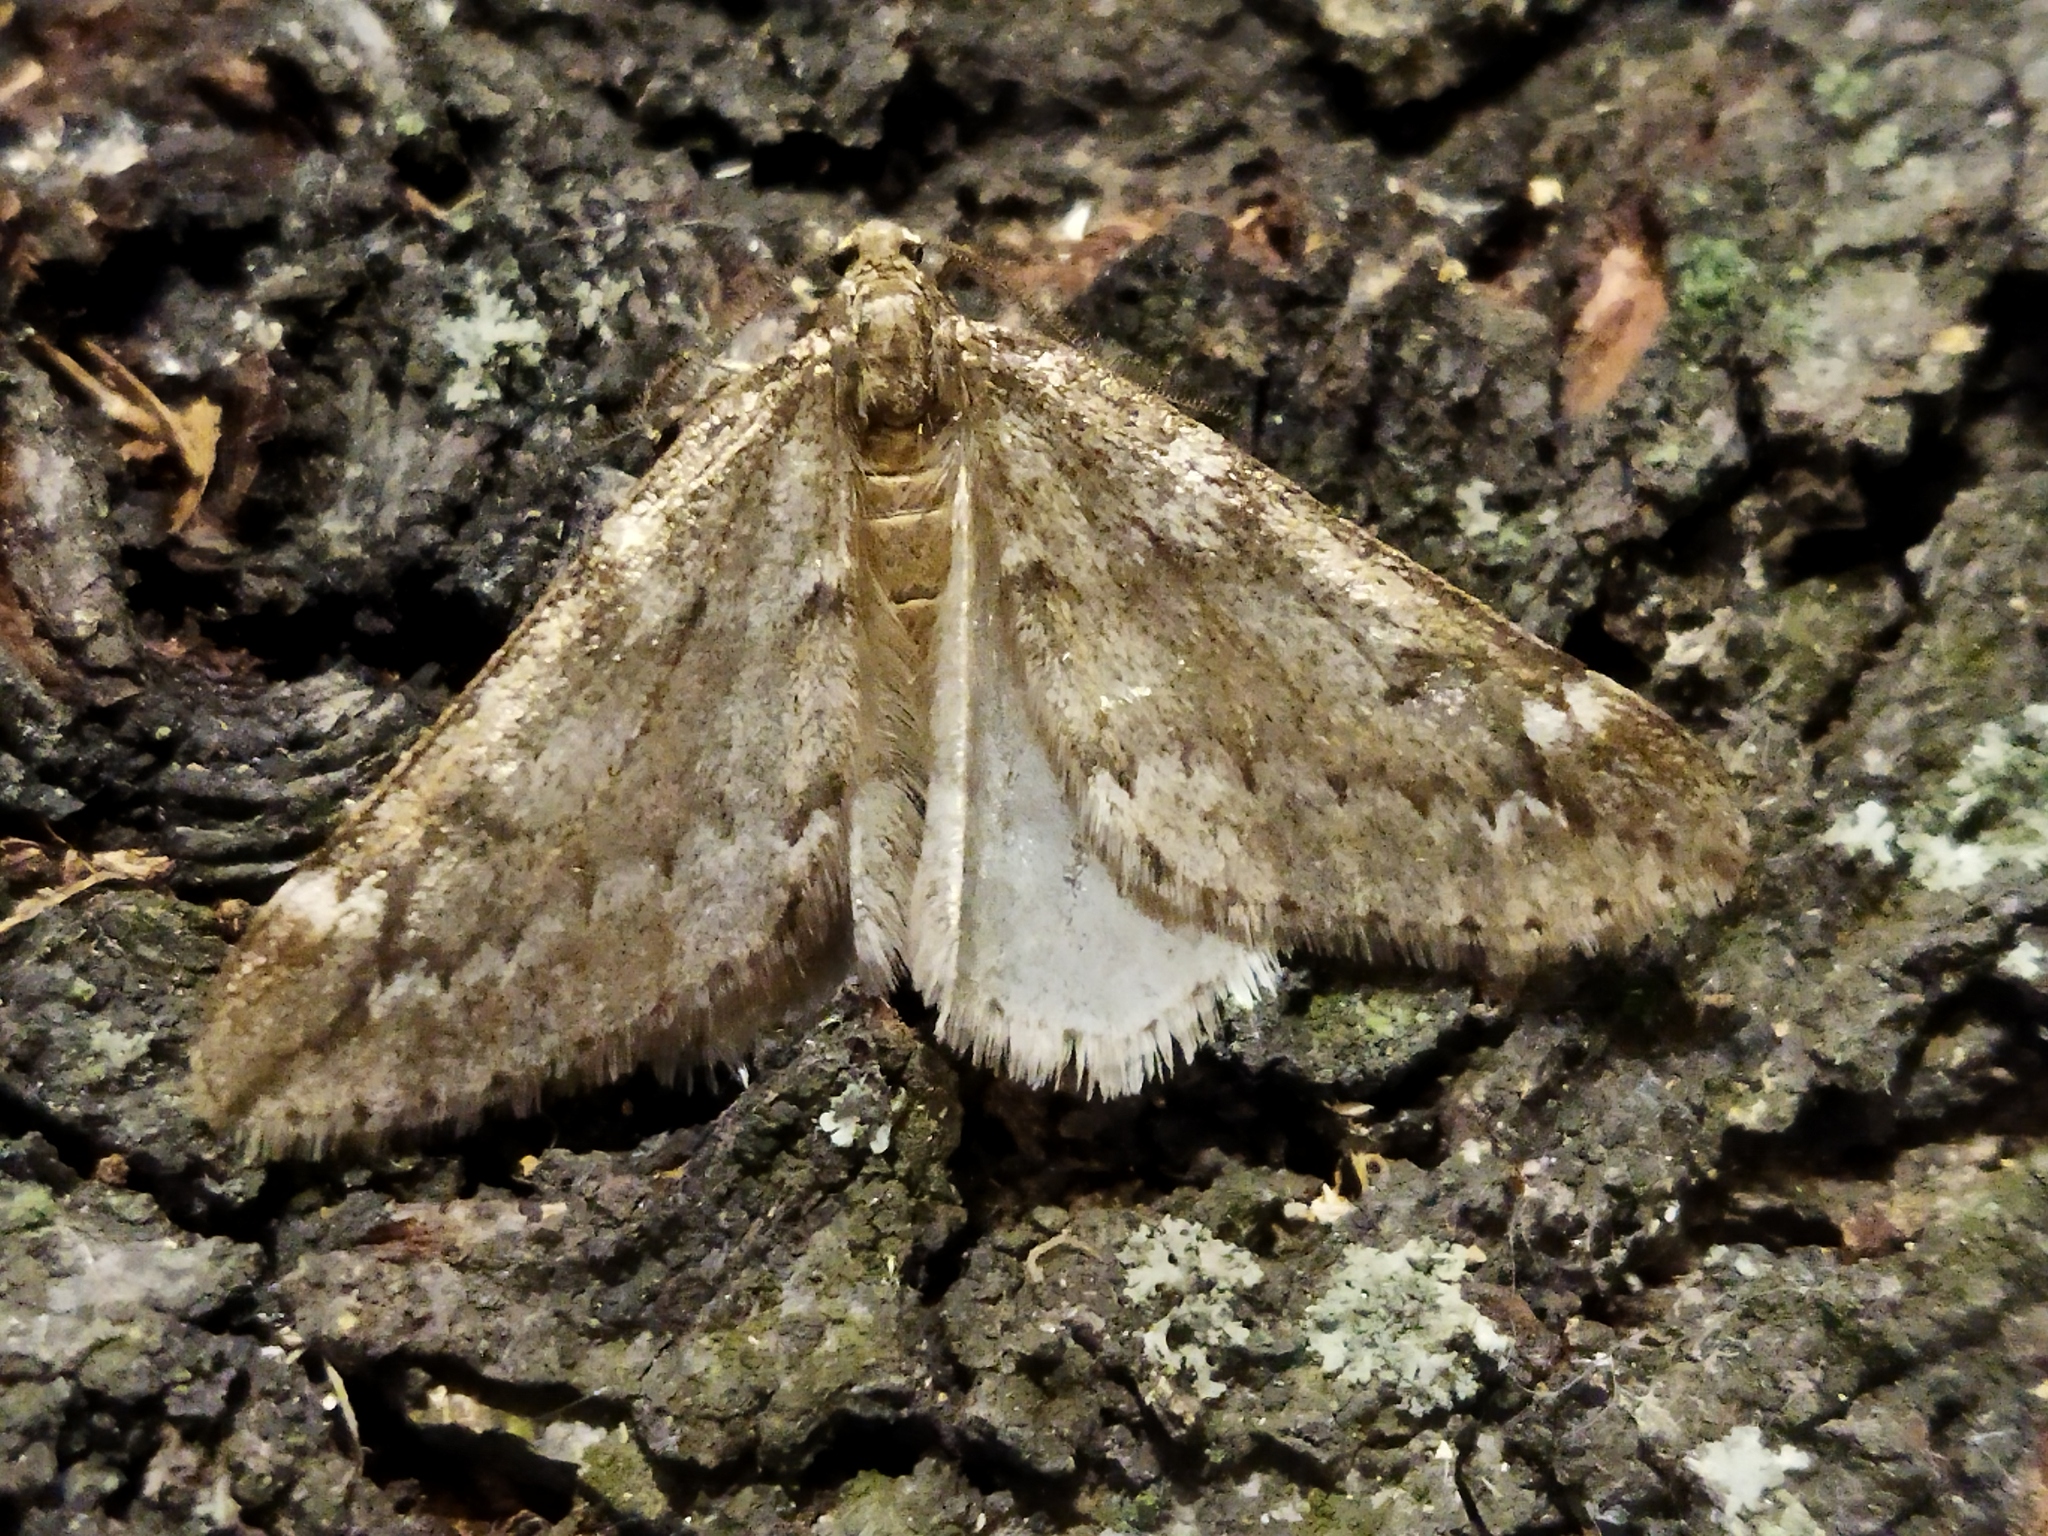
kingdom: Animalia
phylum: Arthropoda
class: Insecta
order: Lepidoptera
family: Geometridae
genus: Alsophila
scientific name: Alsophila aescularia
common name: March moth
